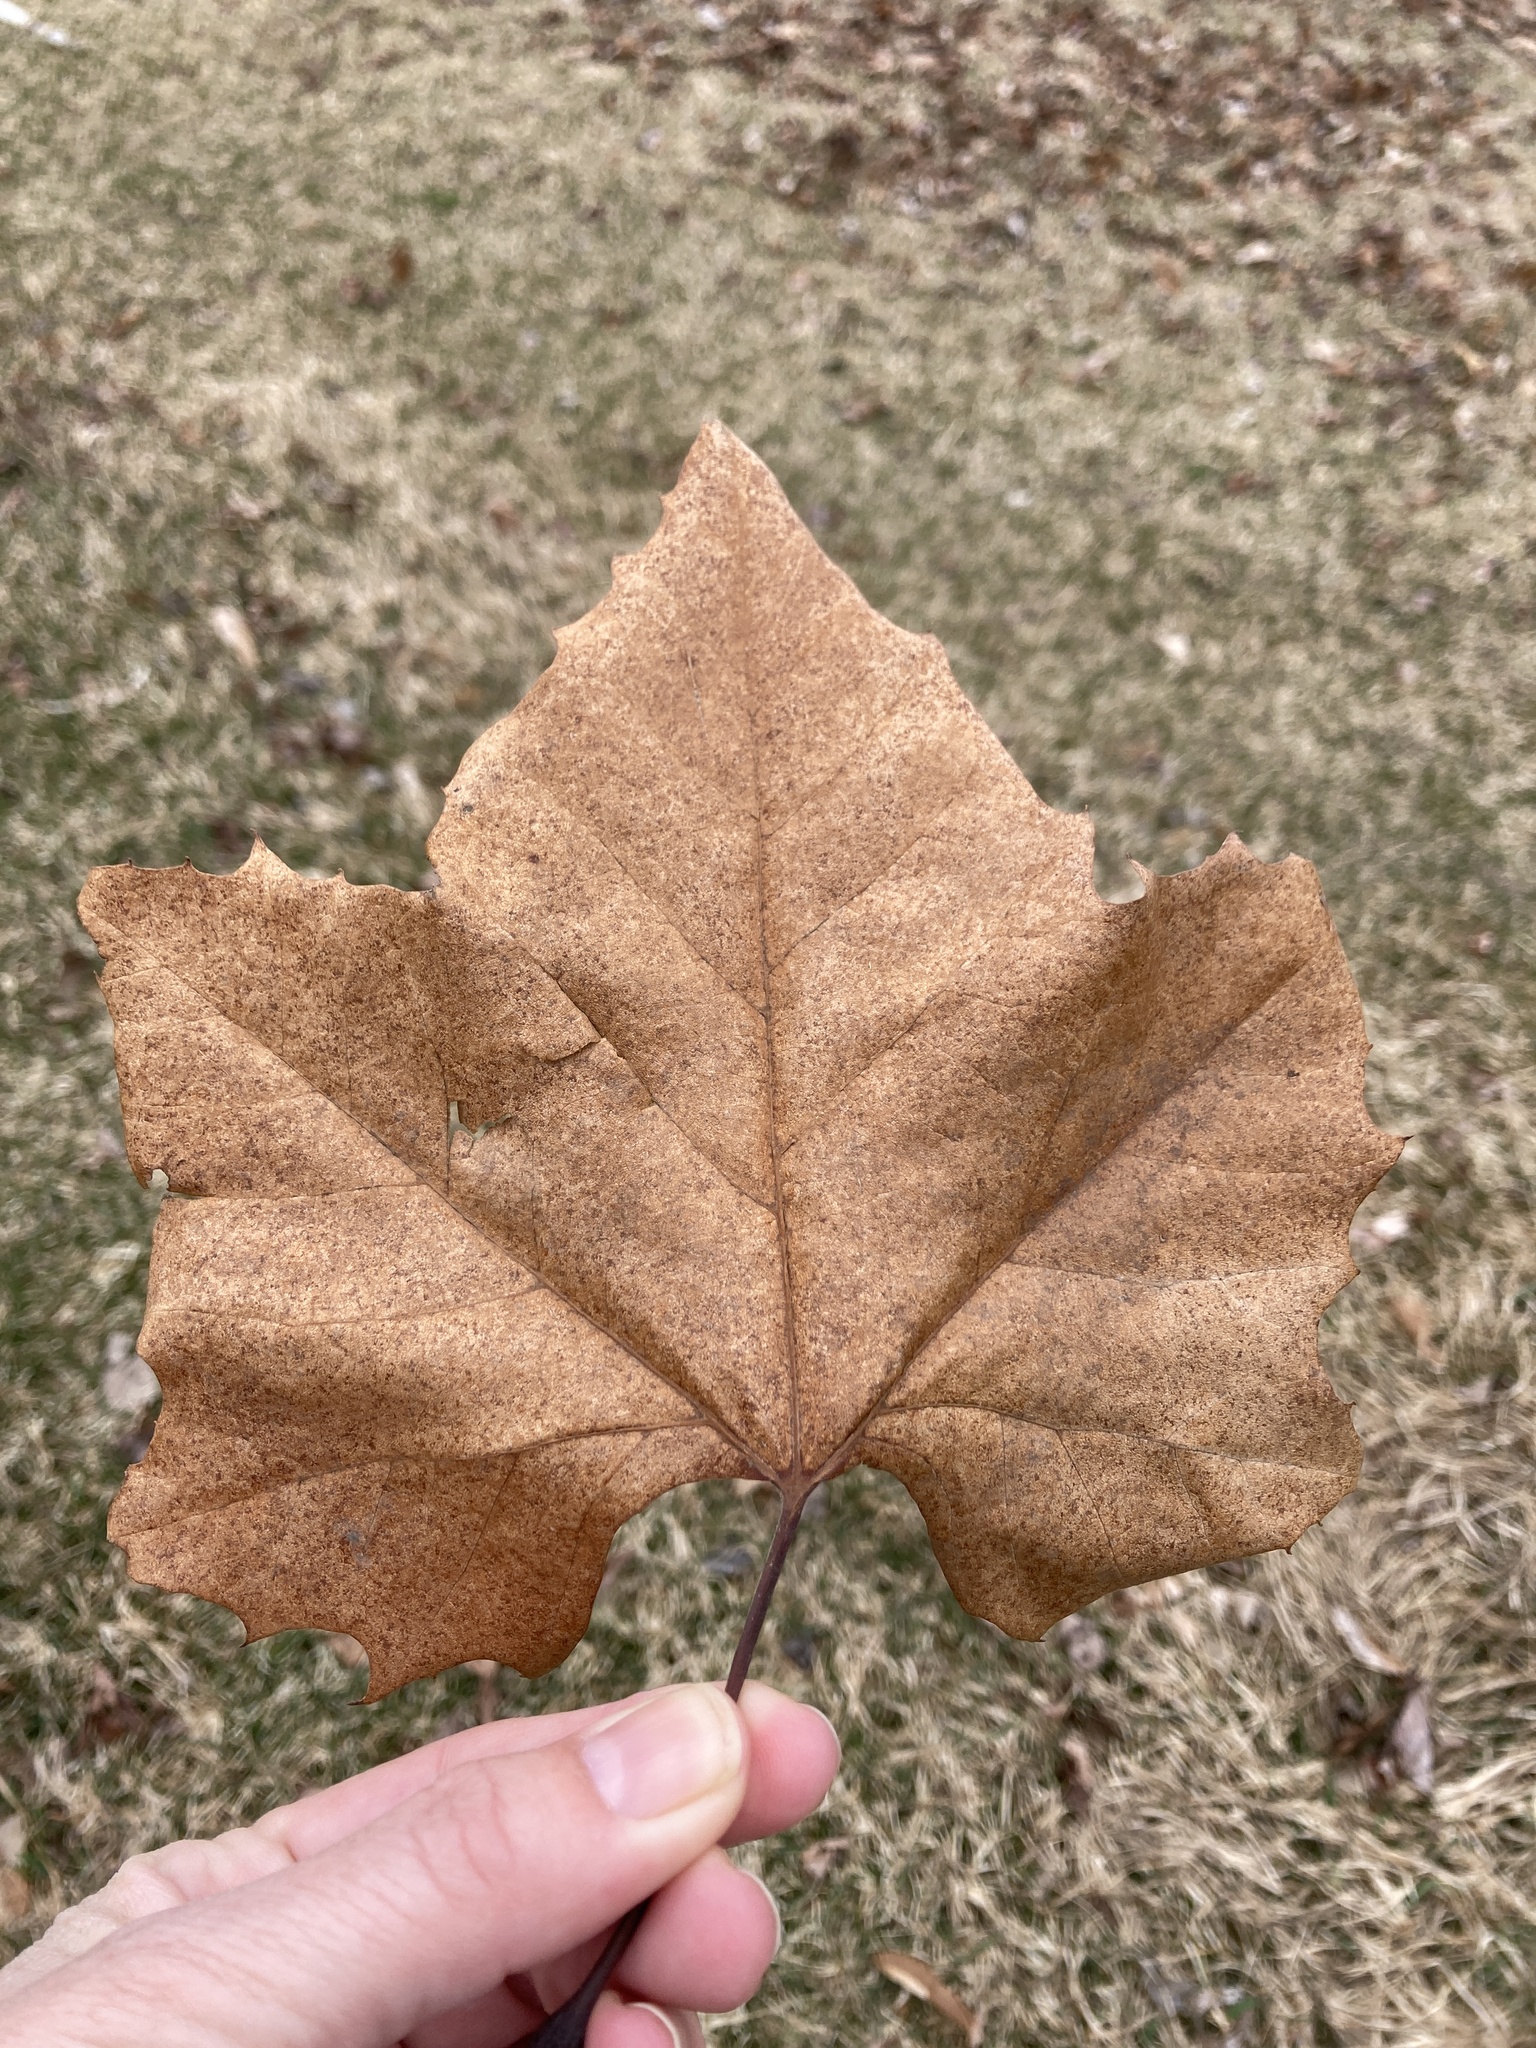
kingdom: Plantae
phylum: Tracheophyta
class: Magnoliopsida
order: Proteales
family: Platanaceae
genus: Platanus
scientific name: Platanus occidentalis
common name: American sycamore
